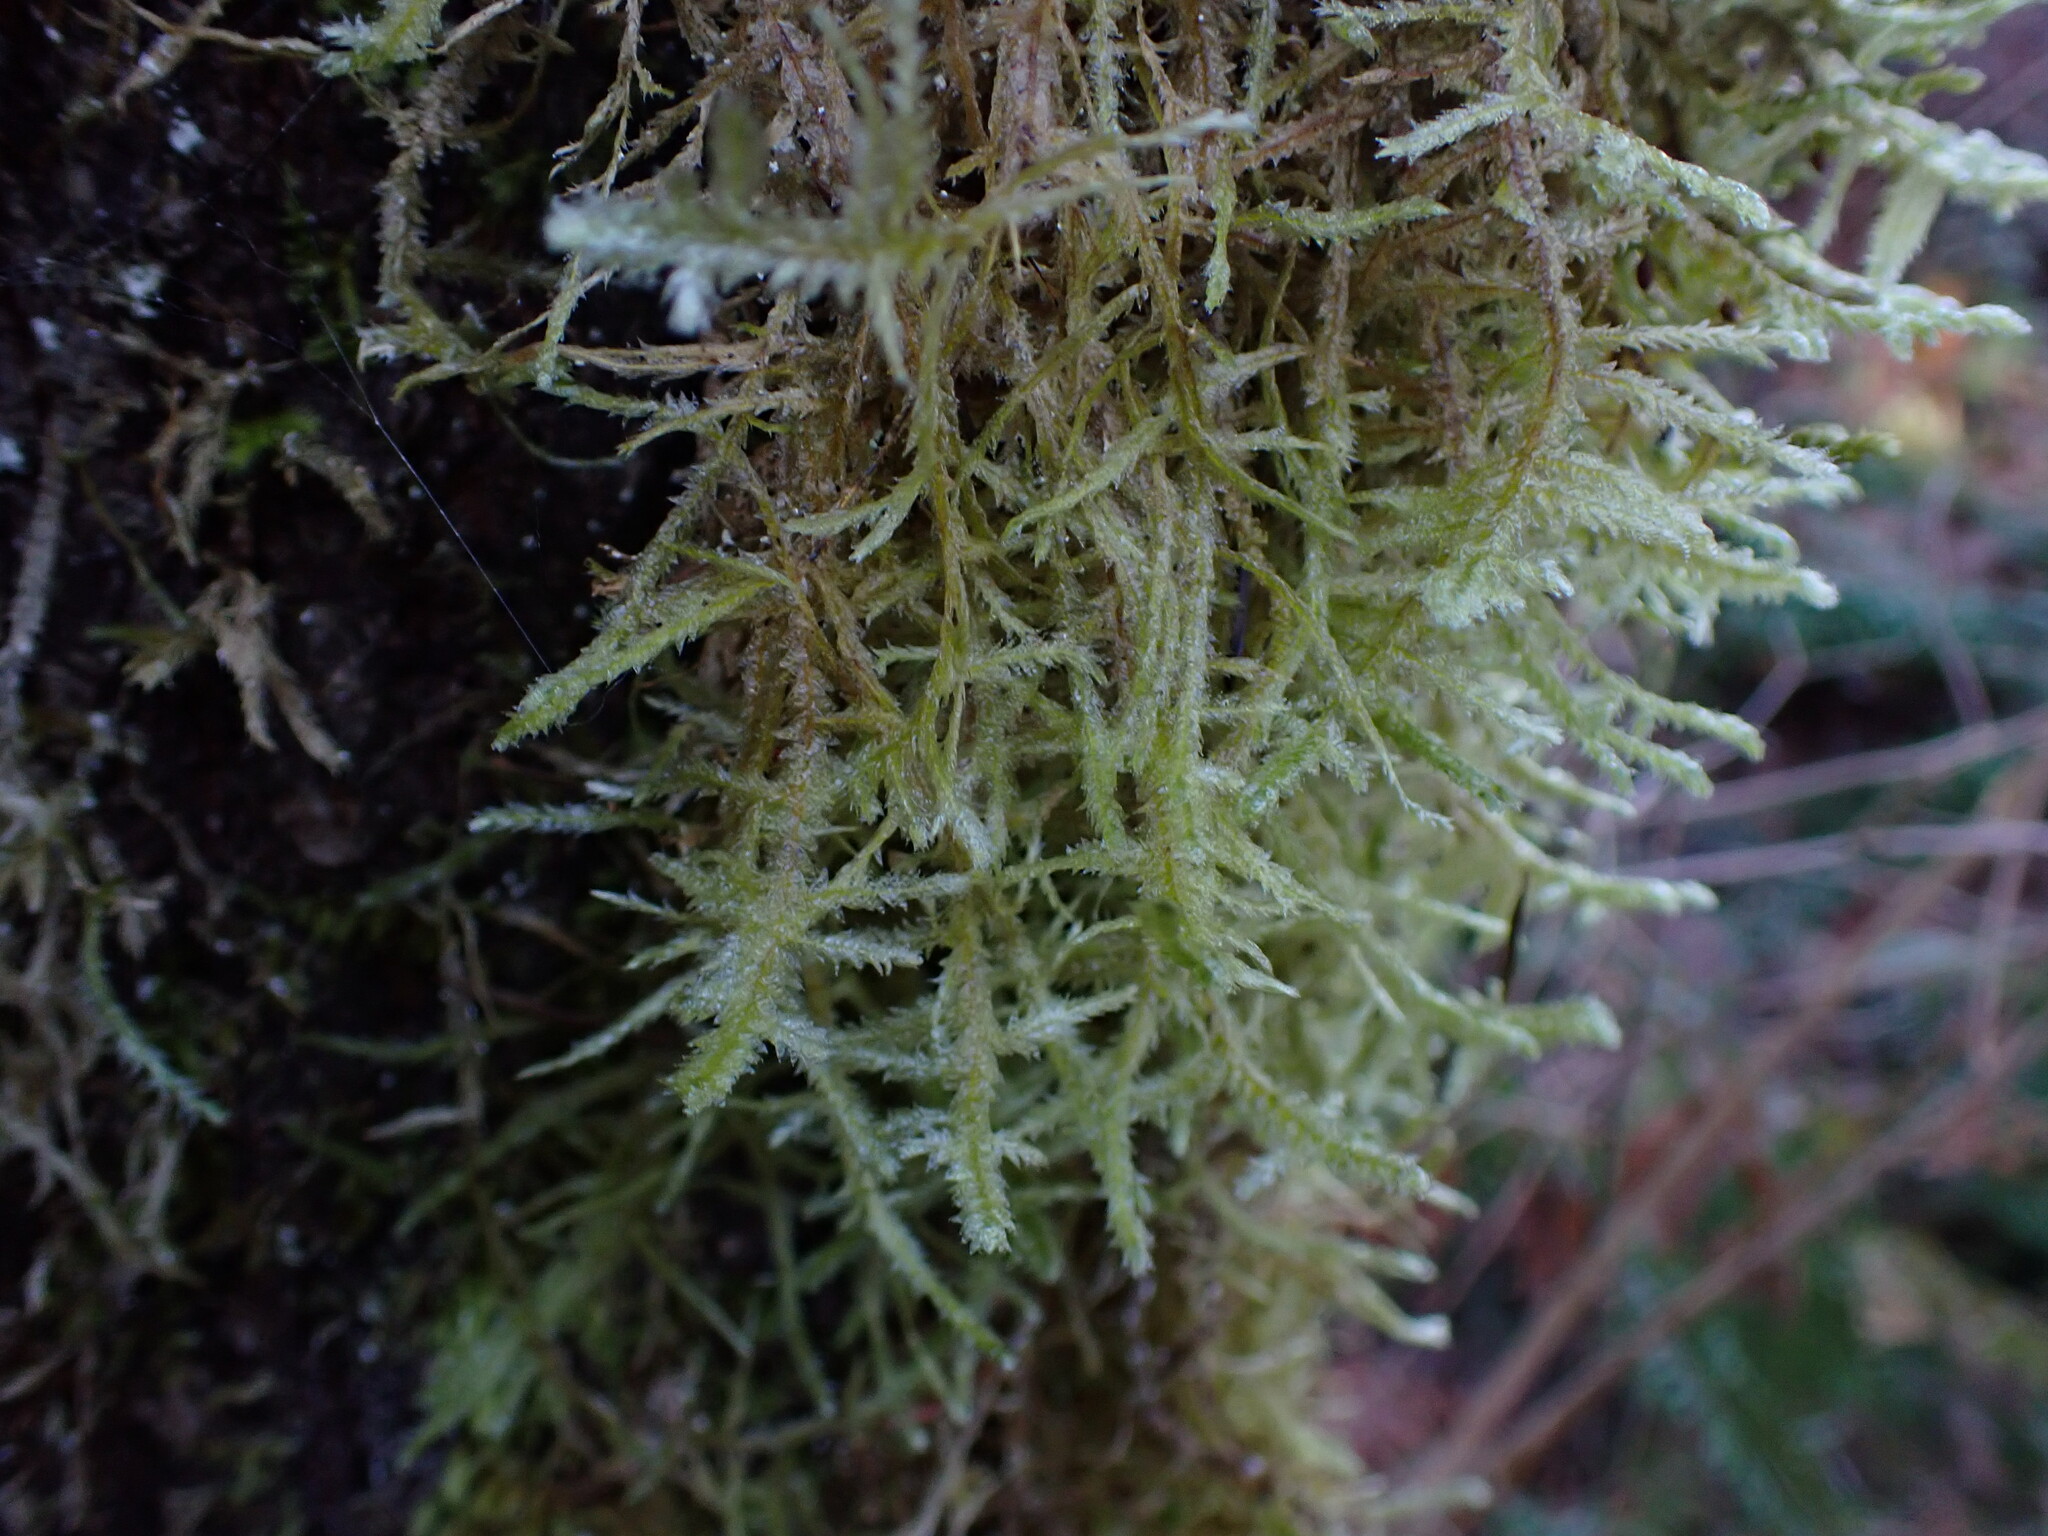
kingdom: Plantae
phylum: Bryophyta
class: Bryopsida
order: Hypnales
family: Neckeraceae
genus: Neckera
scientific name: Neckera douglasii
